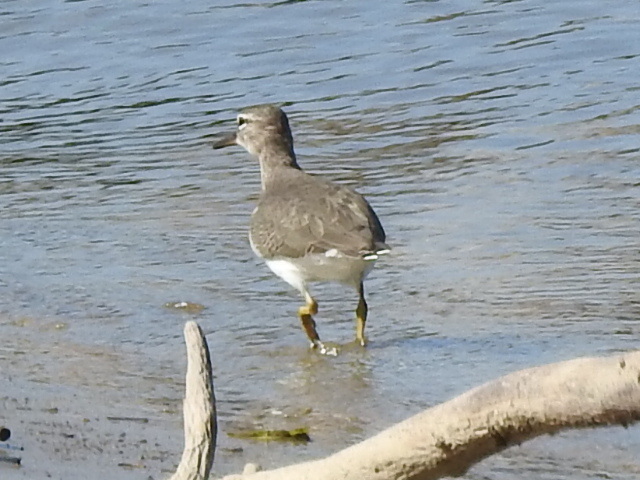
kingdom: Animalia
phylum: Chordata
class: Aves
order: Charadriiformes
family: Scolopacidae
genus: Actitis
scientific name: Actitis macularius
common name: Spotted sandpiper
